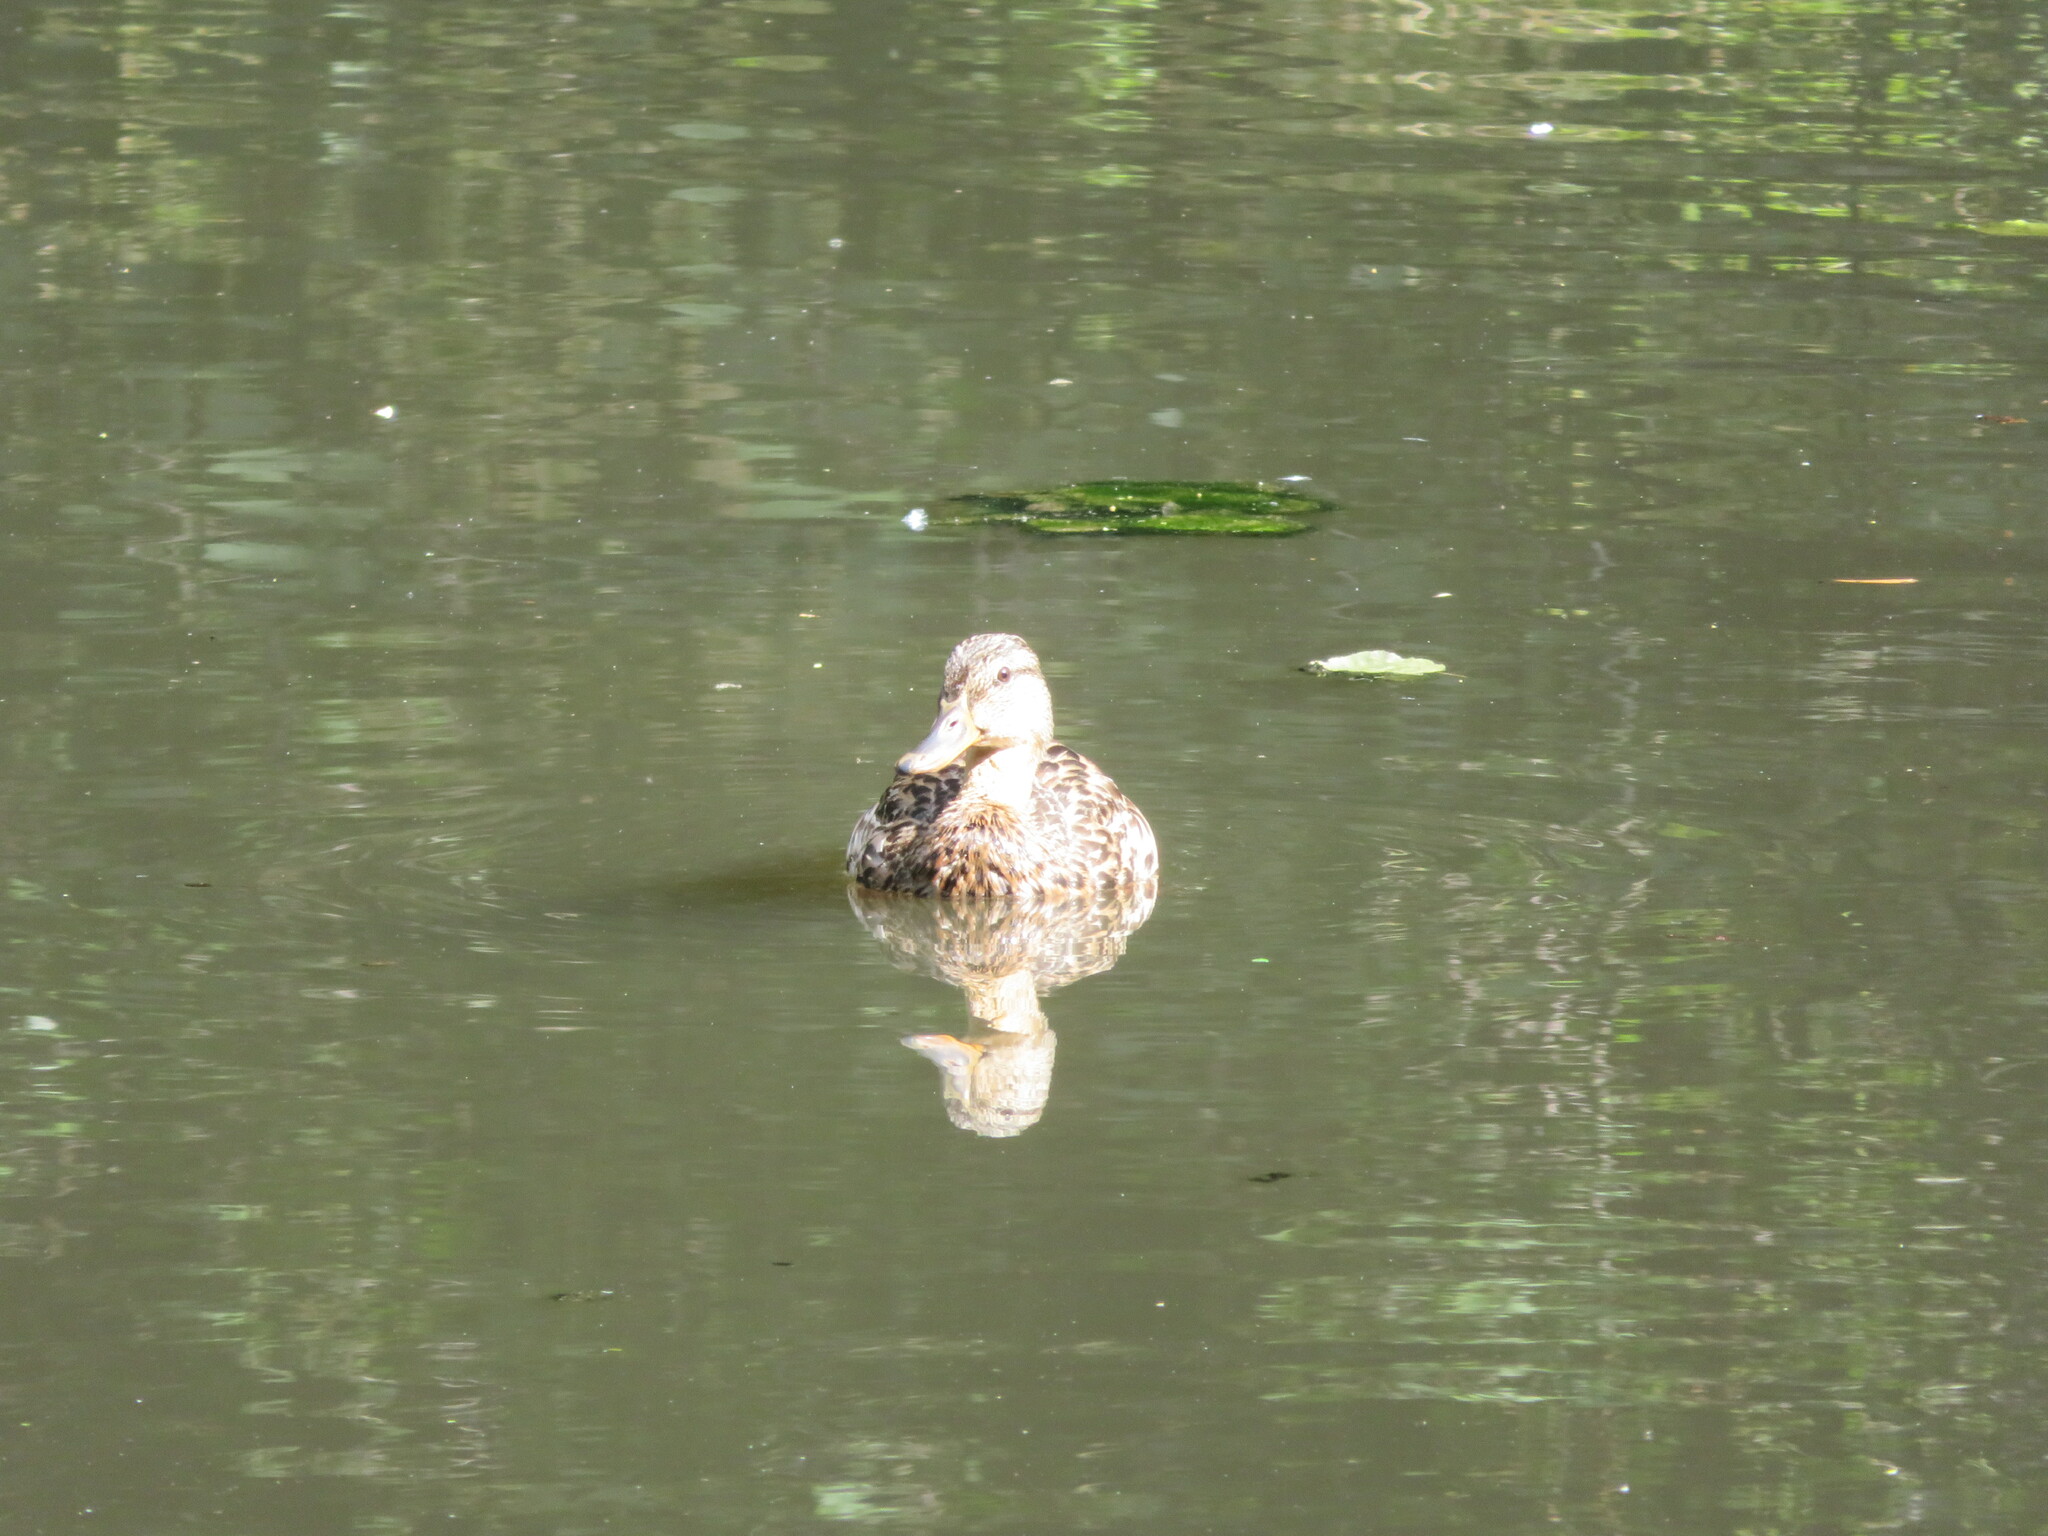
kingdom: Animalia
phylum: Chordata
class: Aves
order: Anseriformes
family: Anatidae
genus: Anas
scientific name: Anas platyrhynchos
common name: Mallard
